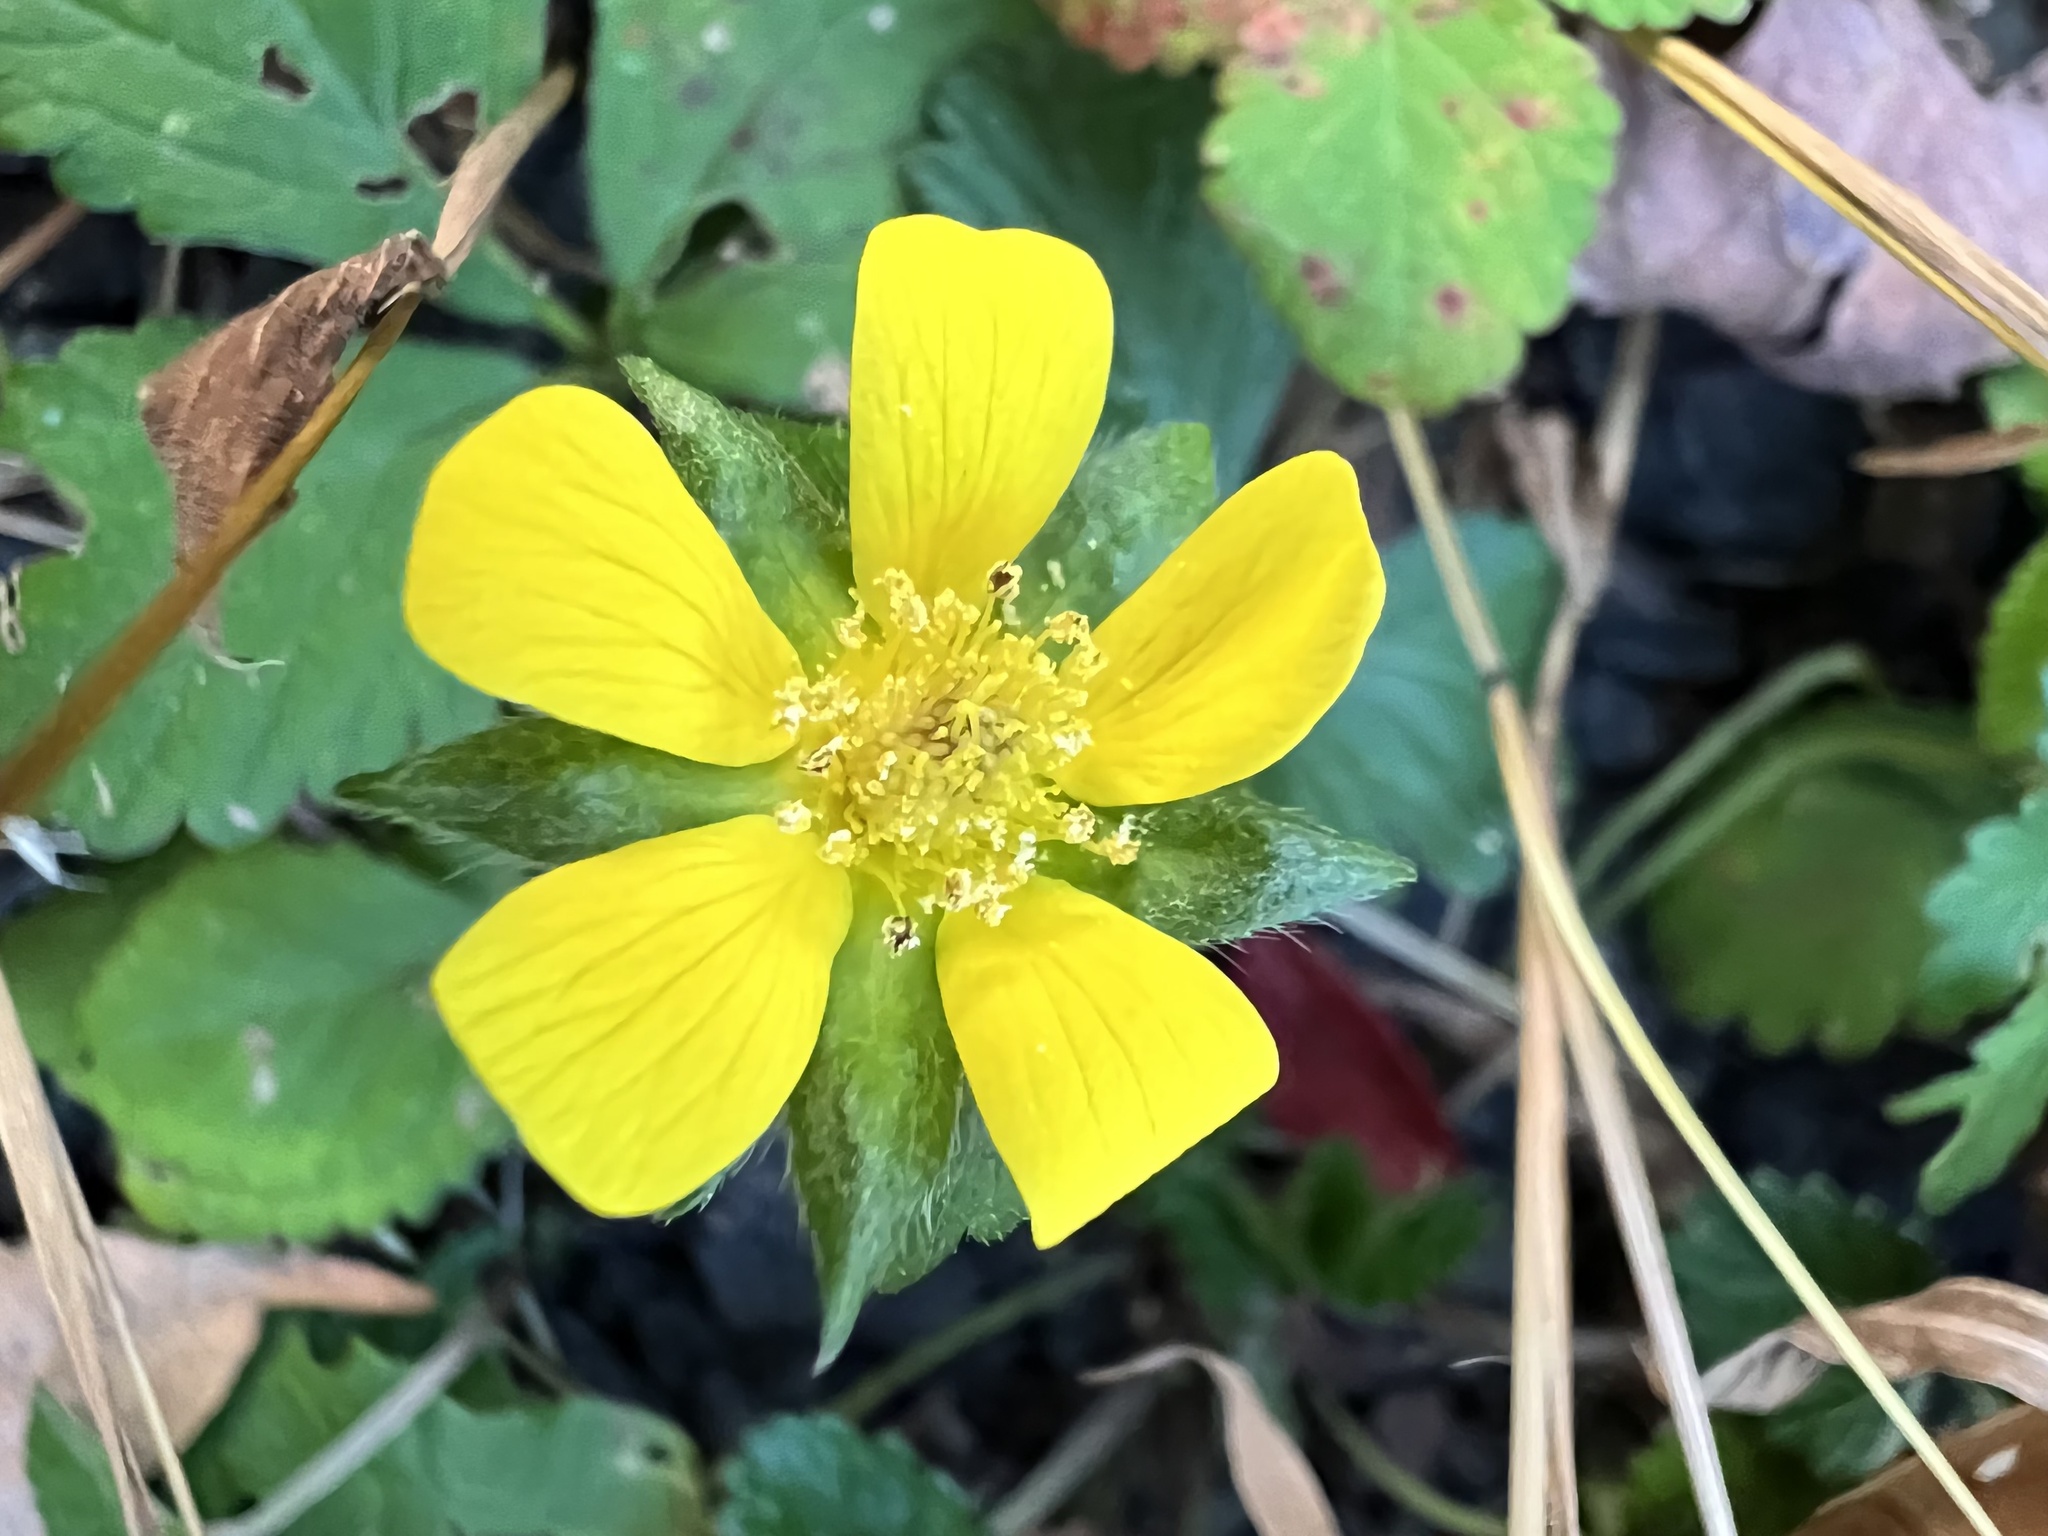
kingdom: Plantae
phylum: Tracheophyta
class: Magnoliopsida
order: Rosales
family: Rosaceae
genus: Potentilla
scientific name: Potentilla indica
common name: Yellow-flowered strawberry
